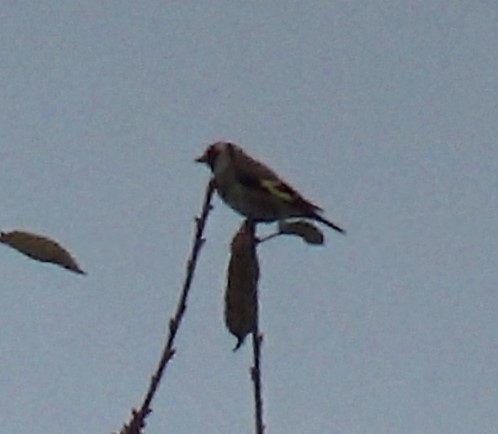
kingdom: Animalia
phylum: Chordata
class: Aves
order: Passeriformes
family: Fringillidae
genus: Carduelis
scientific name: Carduelis carduelis
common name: European goldfinch
